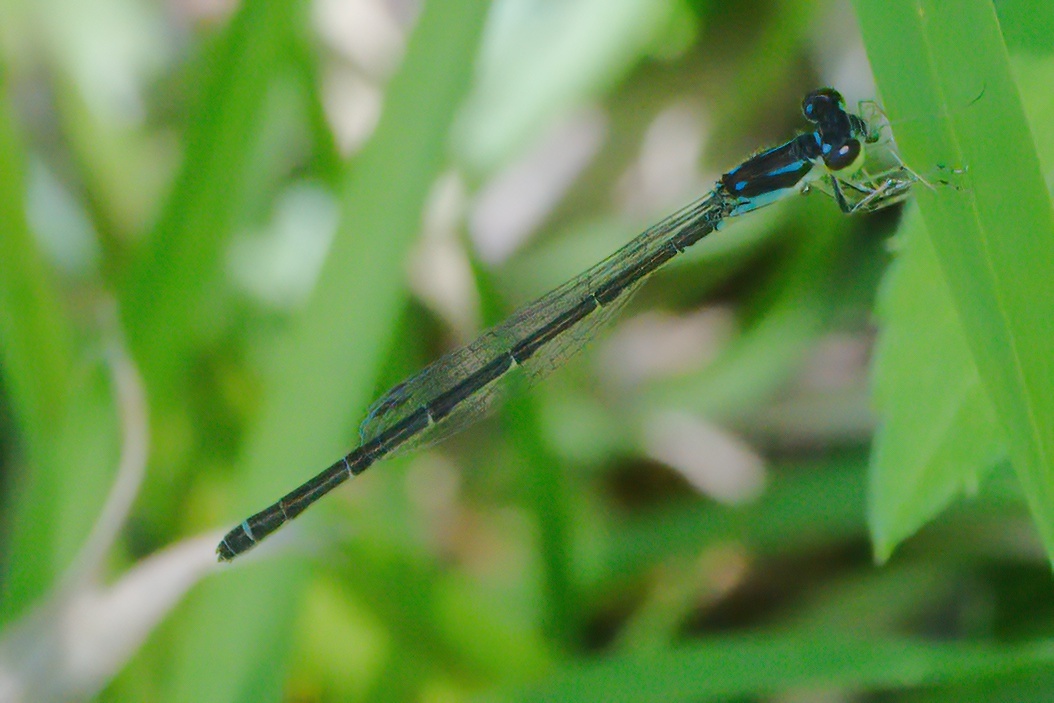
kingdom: Animalia
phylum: Arthropoda
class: Insecta
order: Odonata
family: Coenagrionidae
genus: Ischnura
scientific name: Ischnura posita
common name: Fragile forktail
